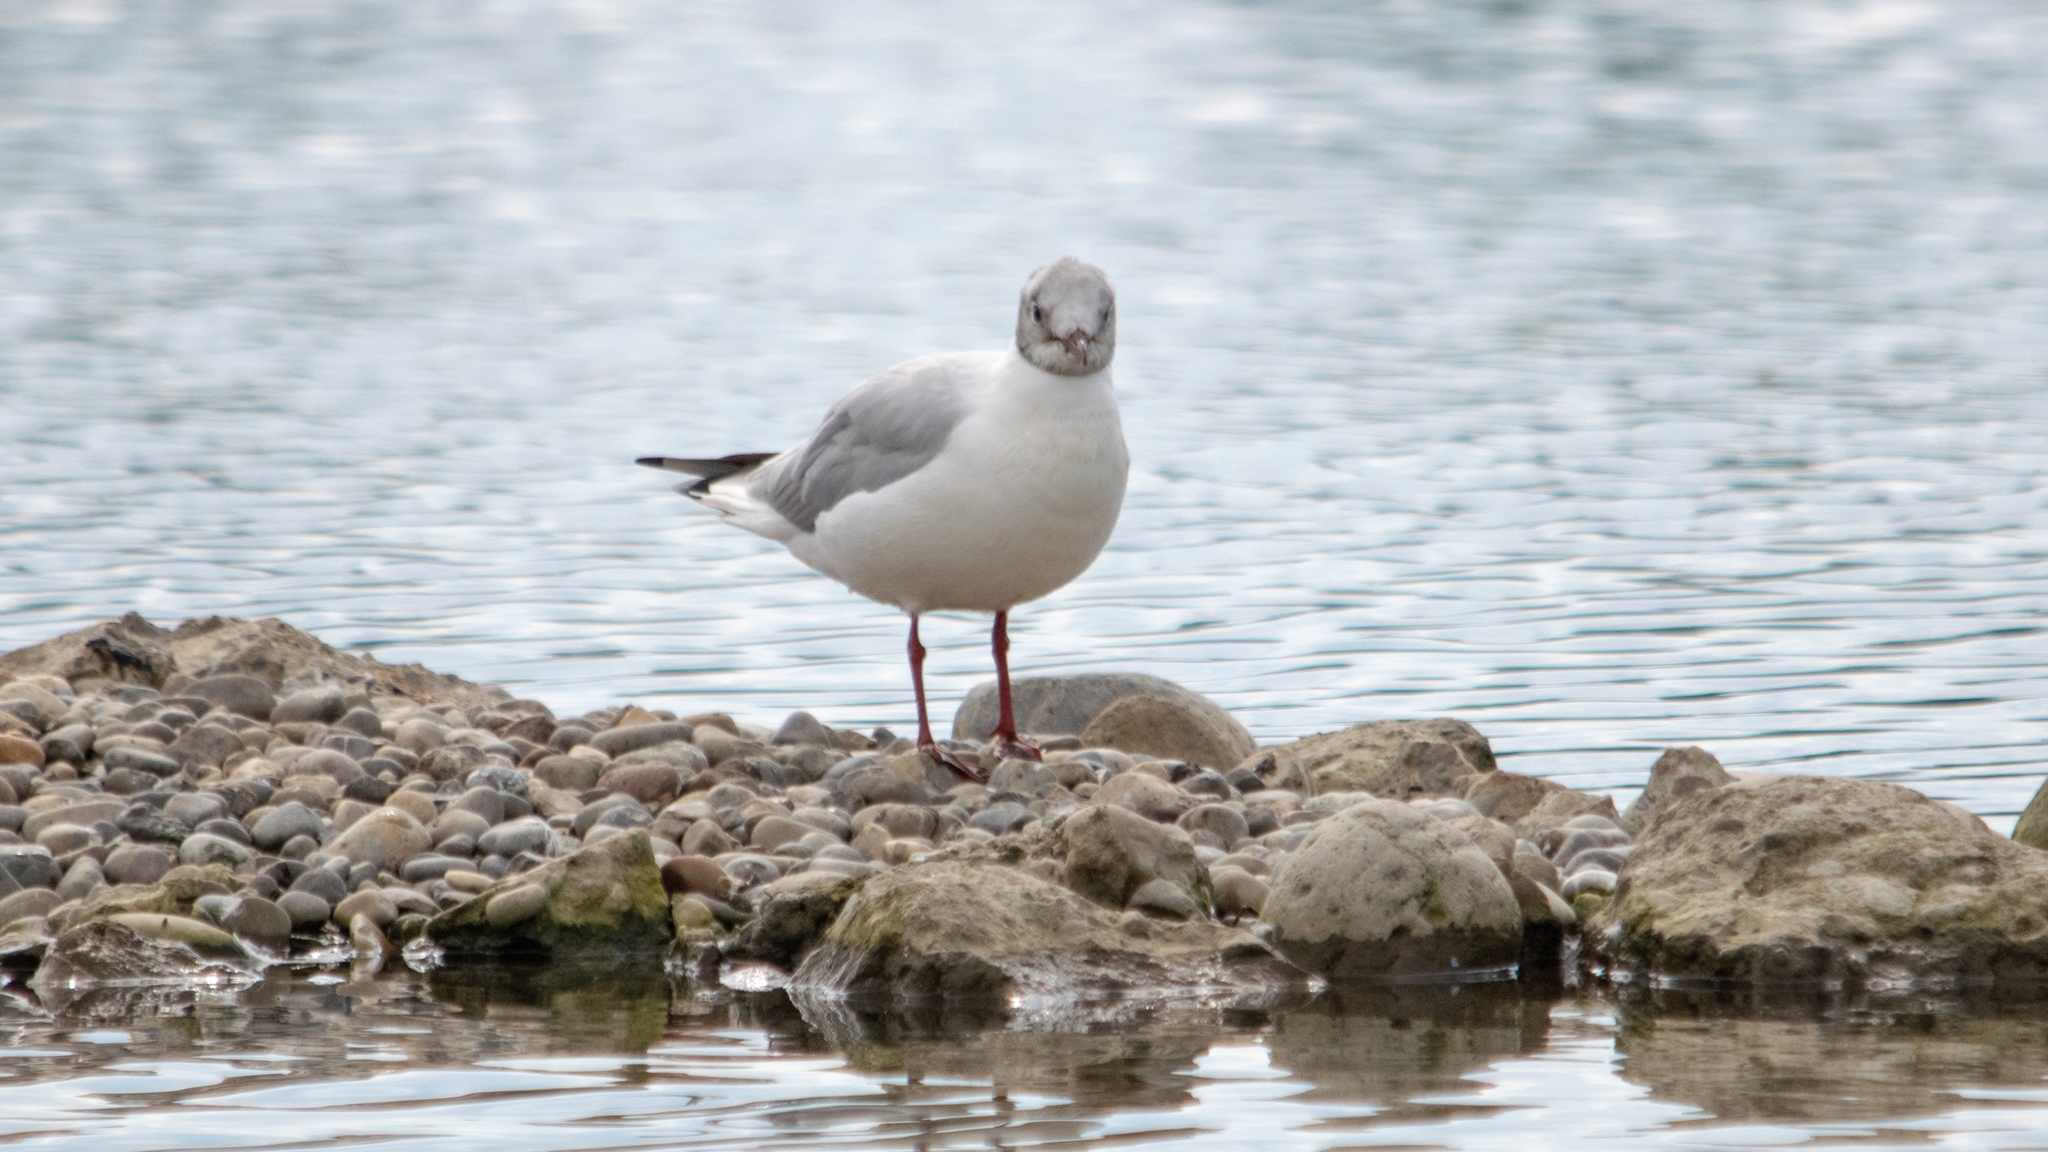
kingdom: Animalia
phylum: Chordata
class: Aves
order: Charadriiformes
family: Laridae
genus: Chroicocephalus
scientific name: Chroicocephalus ridibundus
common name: Black-headed gull
